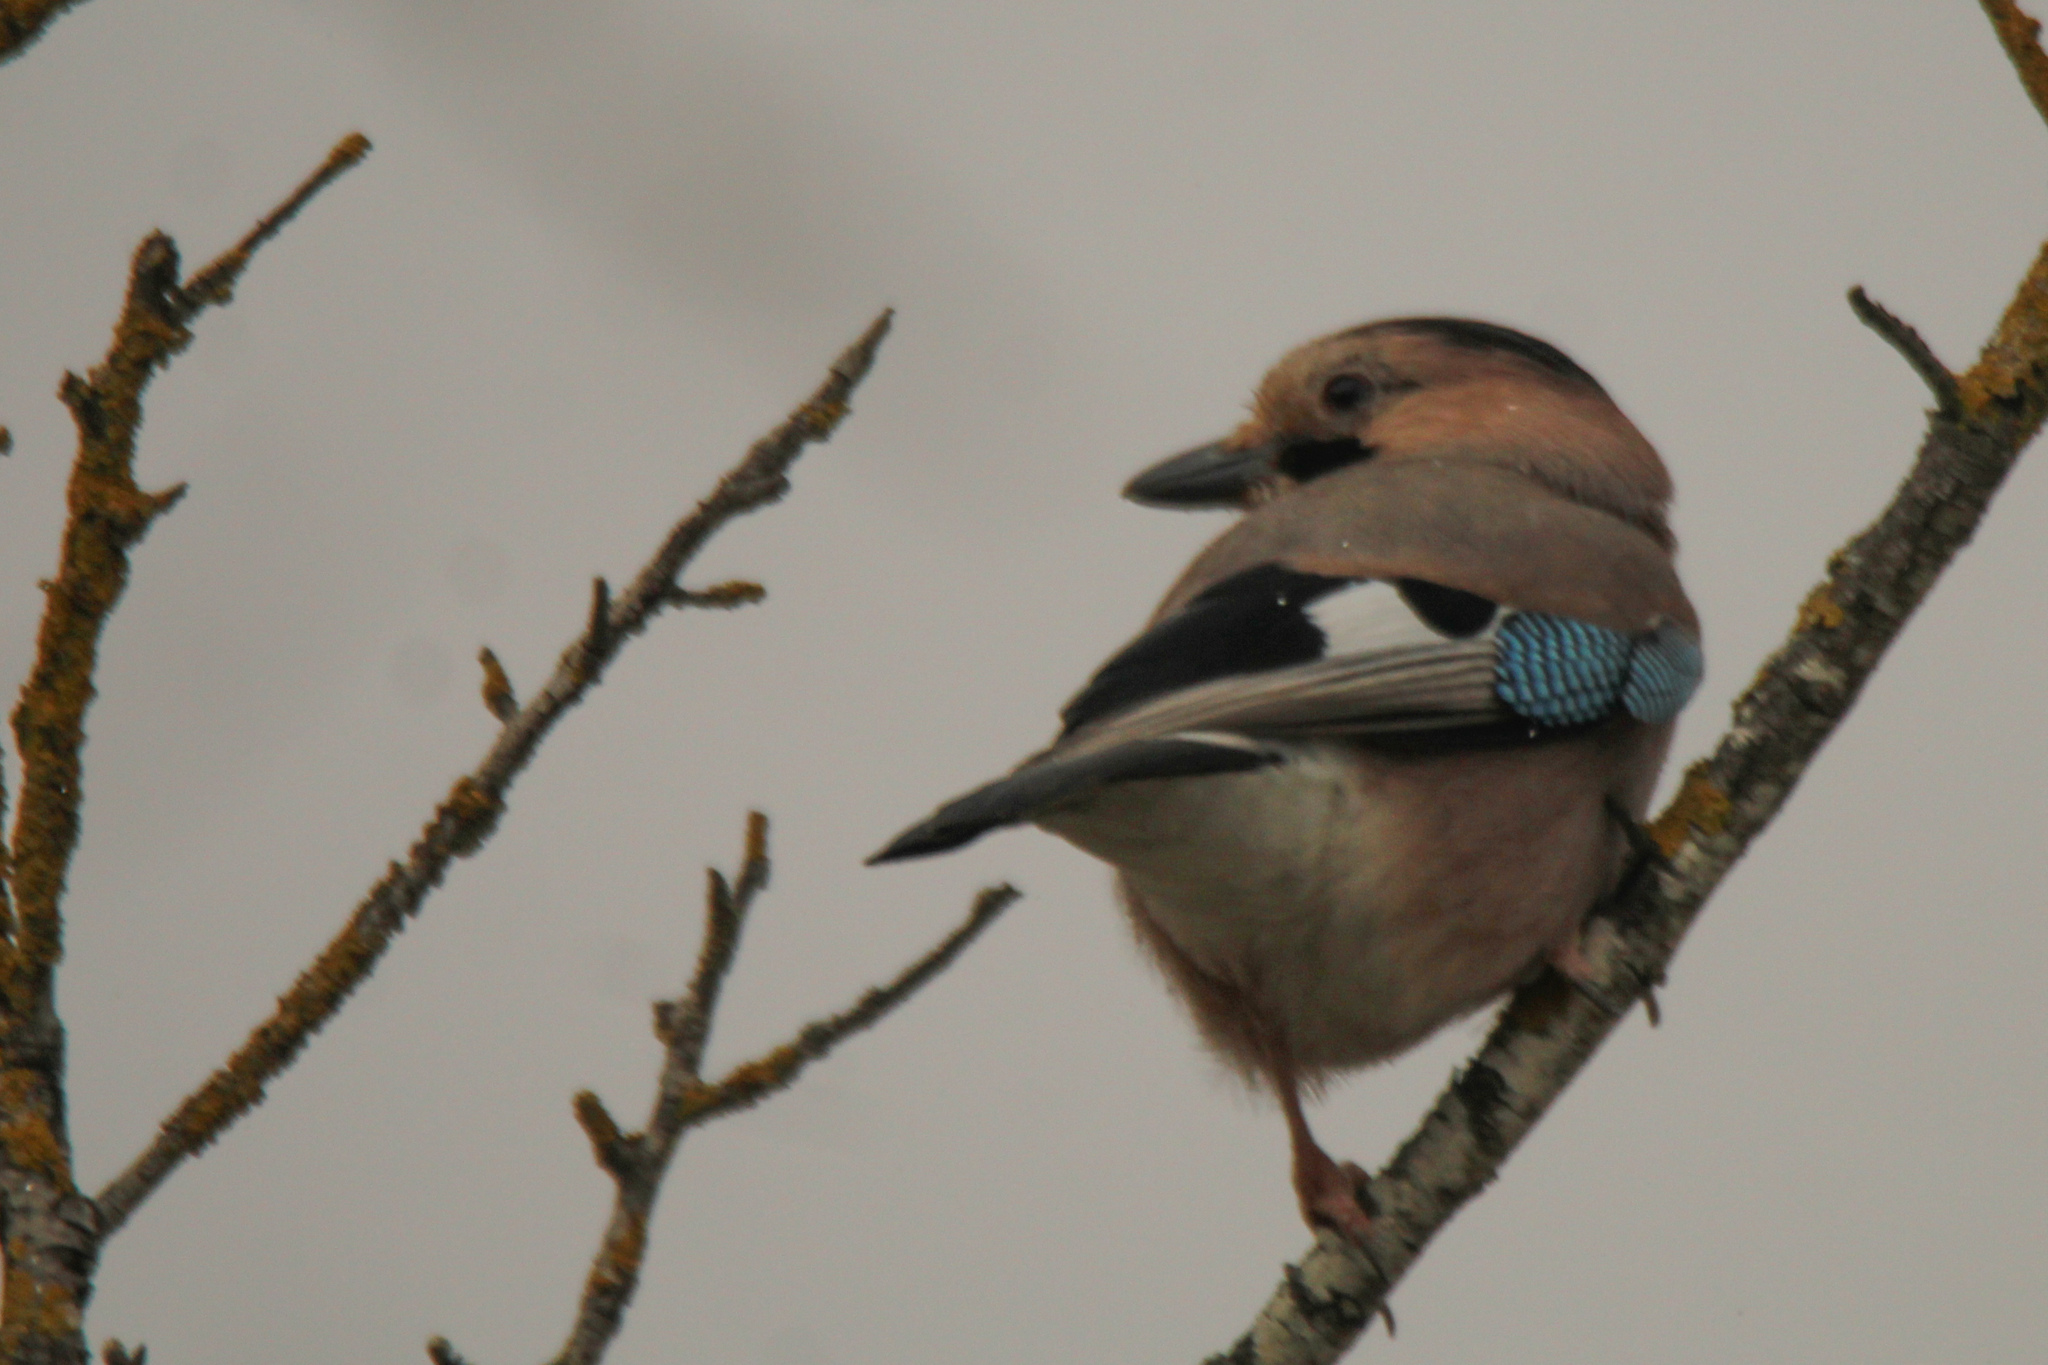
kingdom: Animalia
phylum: Chordata
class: Aves
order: Passeriformes
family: Corvidae
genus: Garrulus
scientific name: Garrulus glandarius
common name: Eurasian jay
